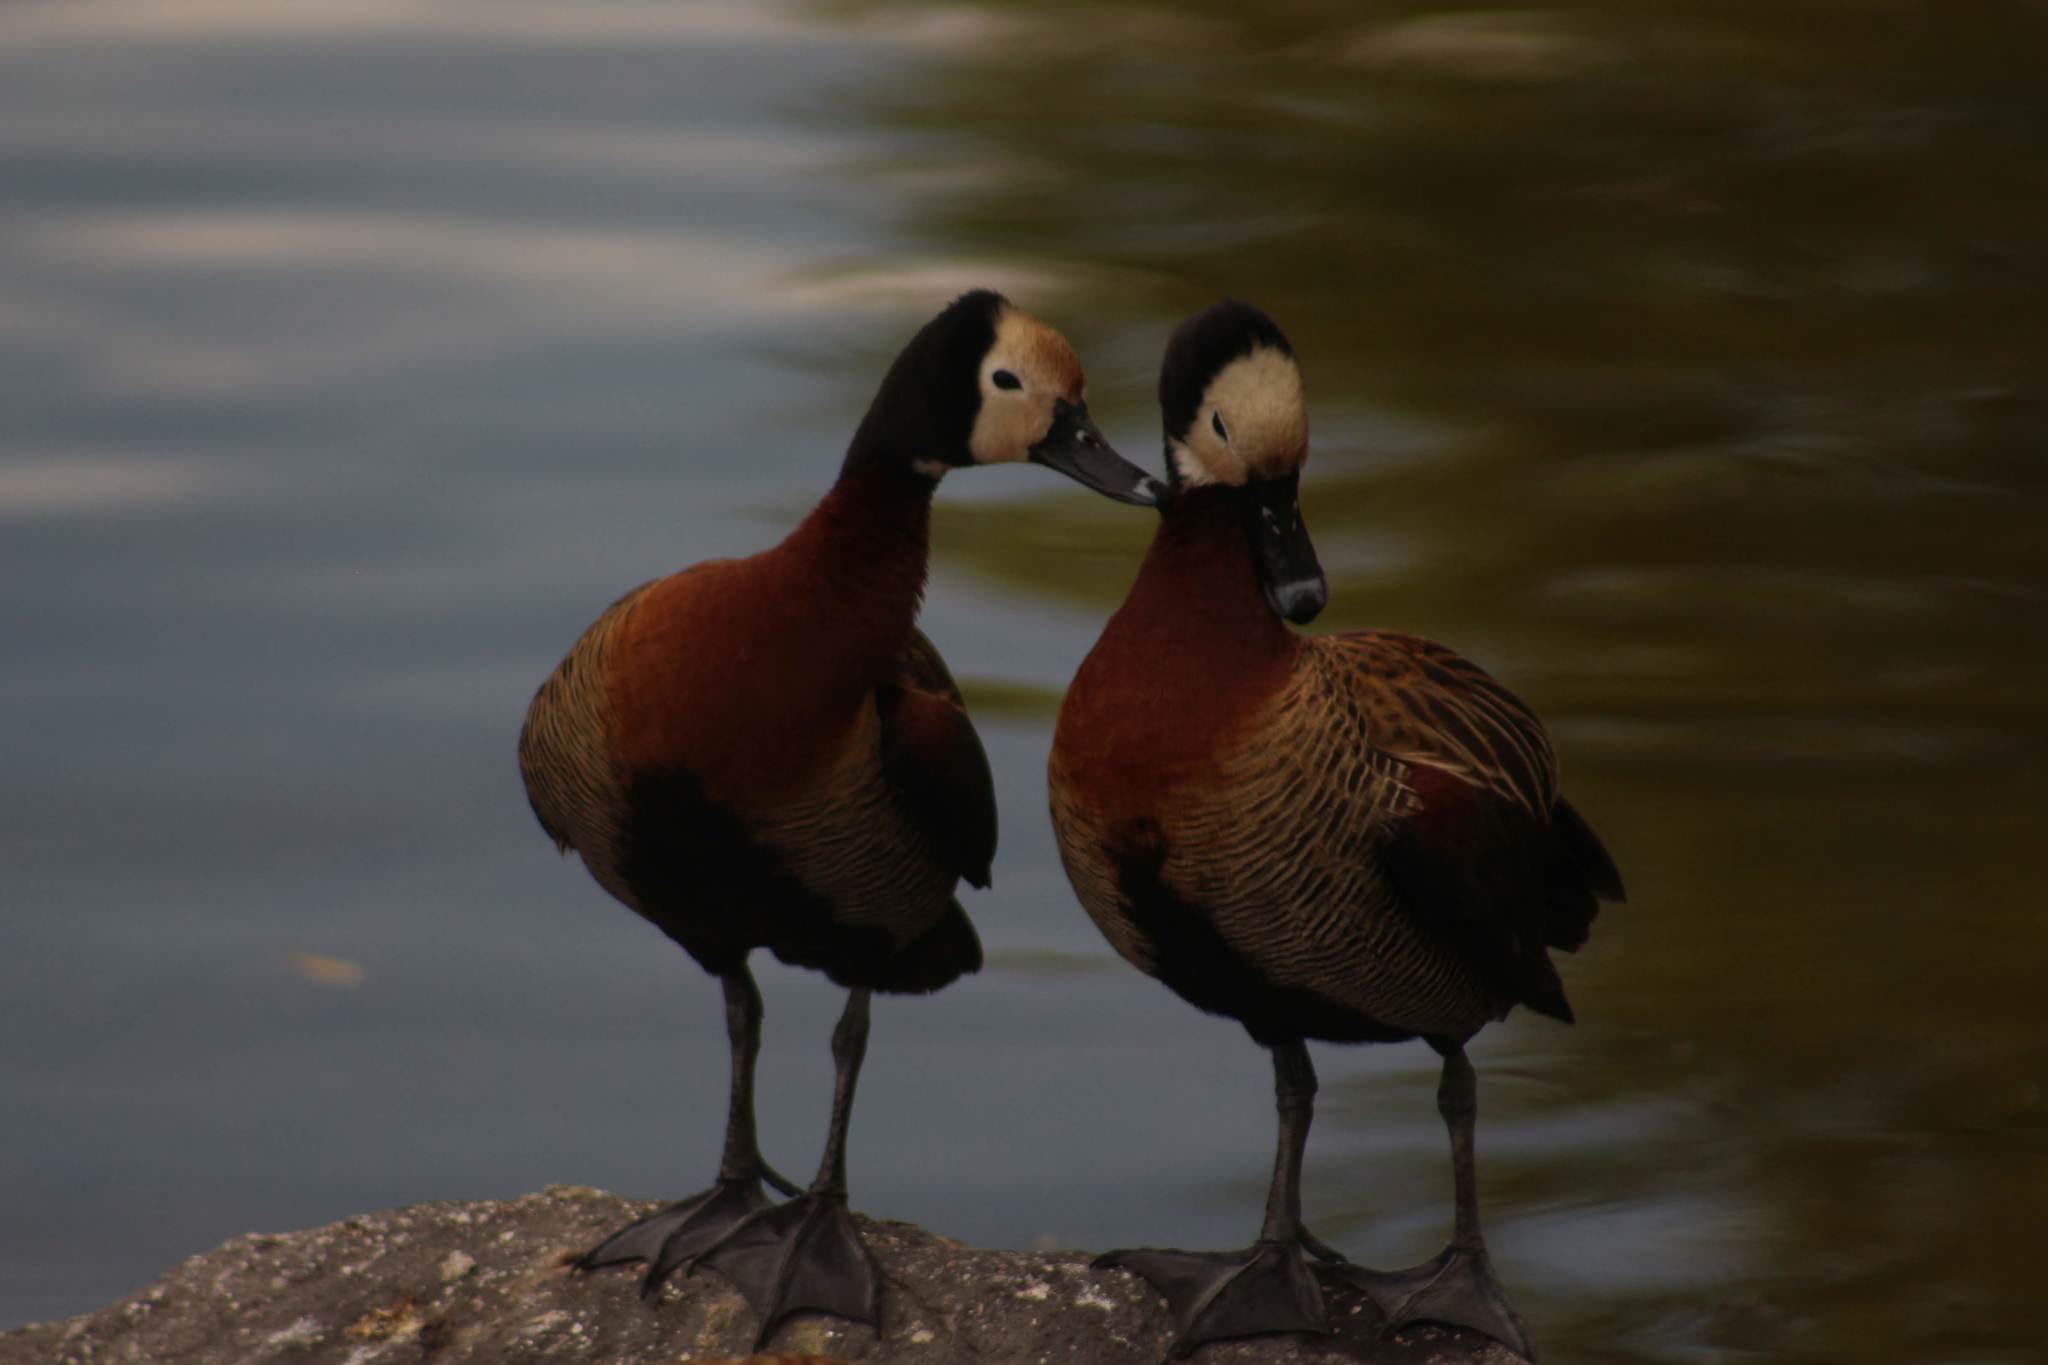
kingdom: Animalia
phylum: Chordata
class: Aves
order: Anseriformes
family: Anatidae
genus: Dendrocygna
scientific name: Dendrocygna viduata
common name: White-faced whistling duck
